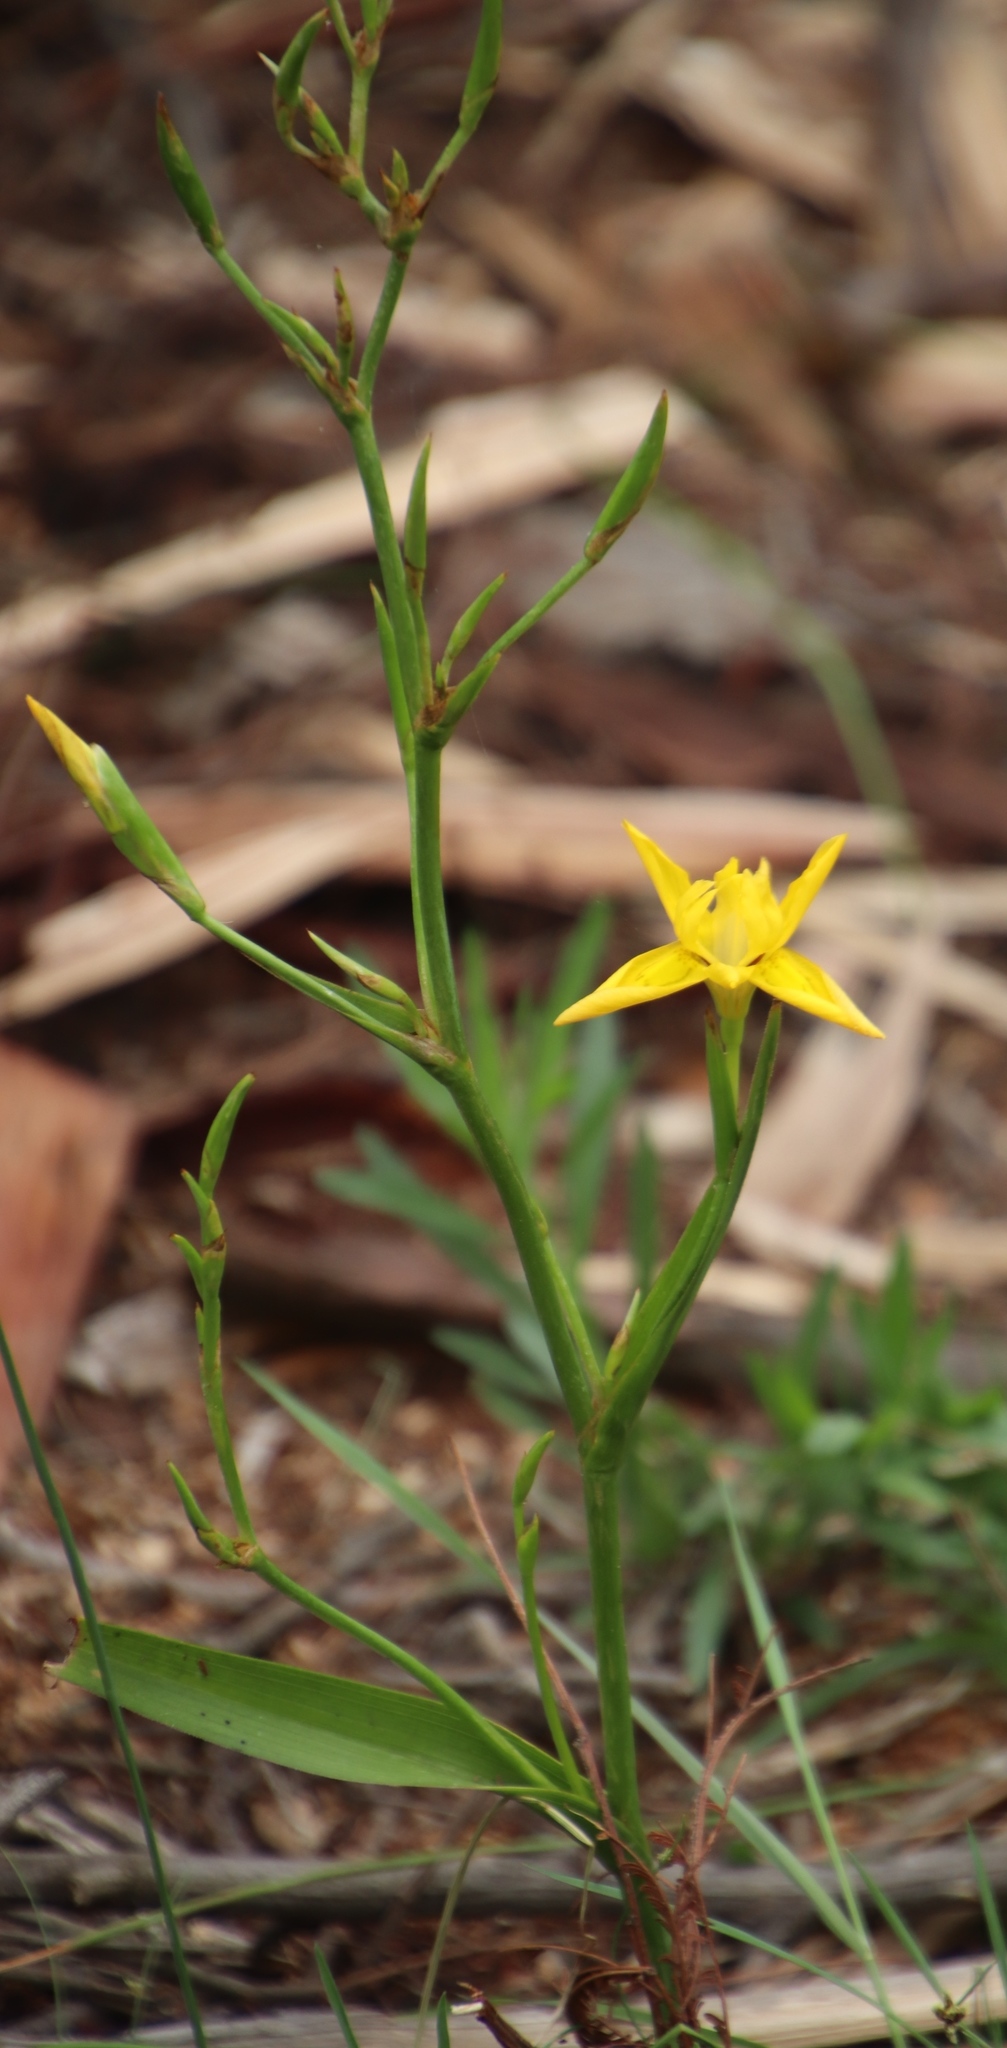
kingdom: Plantae
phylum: Tracheophyta
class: Liliopsida
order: Asparagales
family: Iridaceae
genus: Moraea
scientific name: Moraea ramosissima
